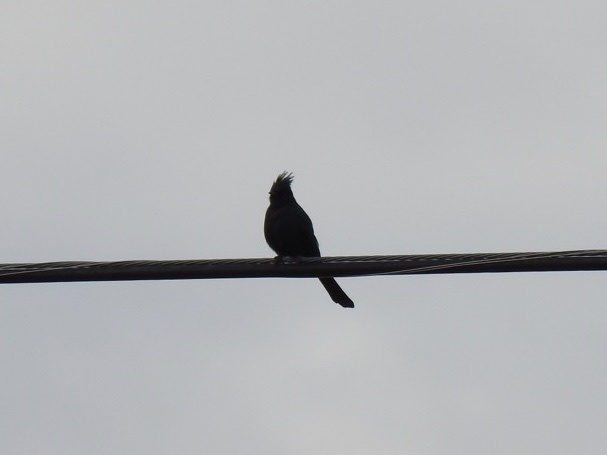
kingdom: Animalia
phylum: Chordata
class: Aves
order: Passeriformes
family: Ptilogonatidae
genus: Phainopepla
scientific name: Phainopepla nitens
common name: Phainopepla
